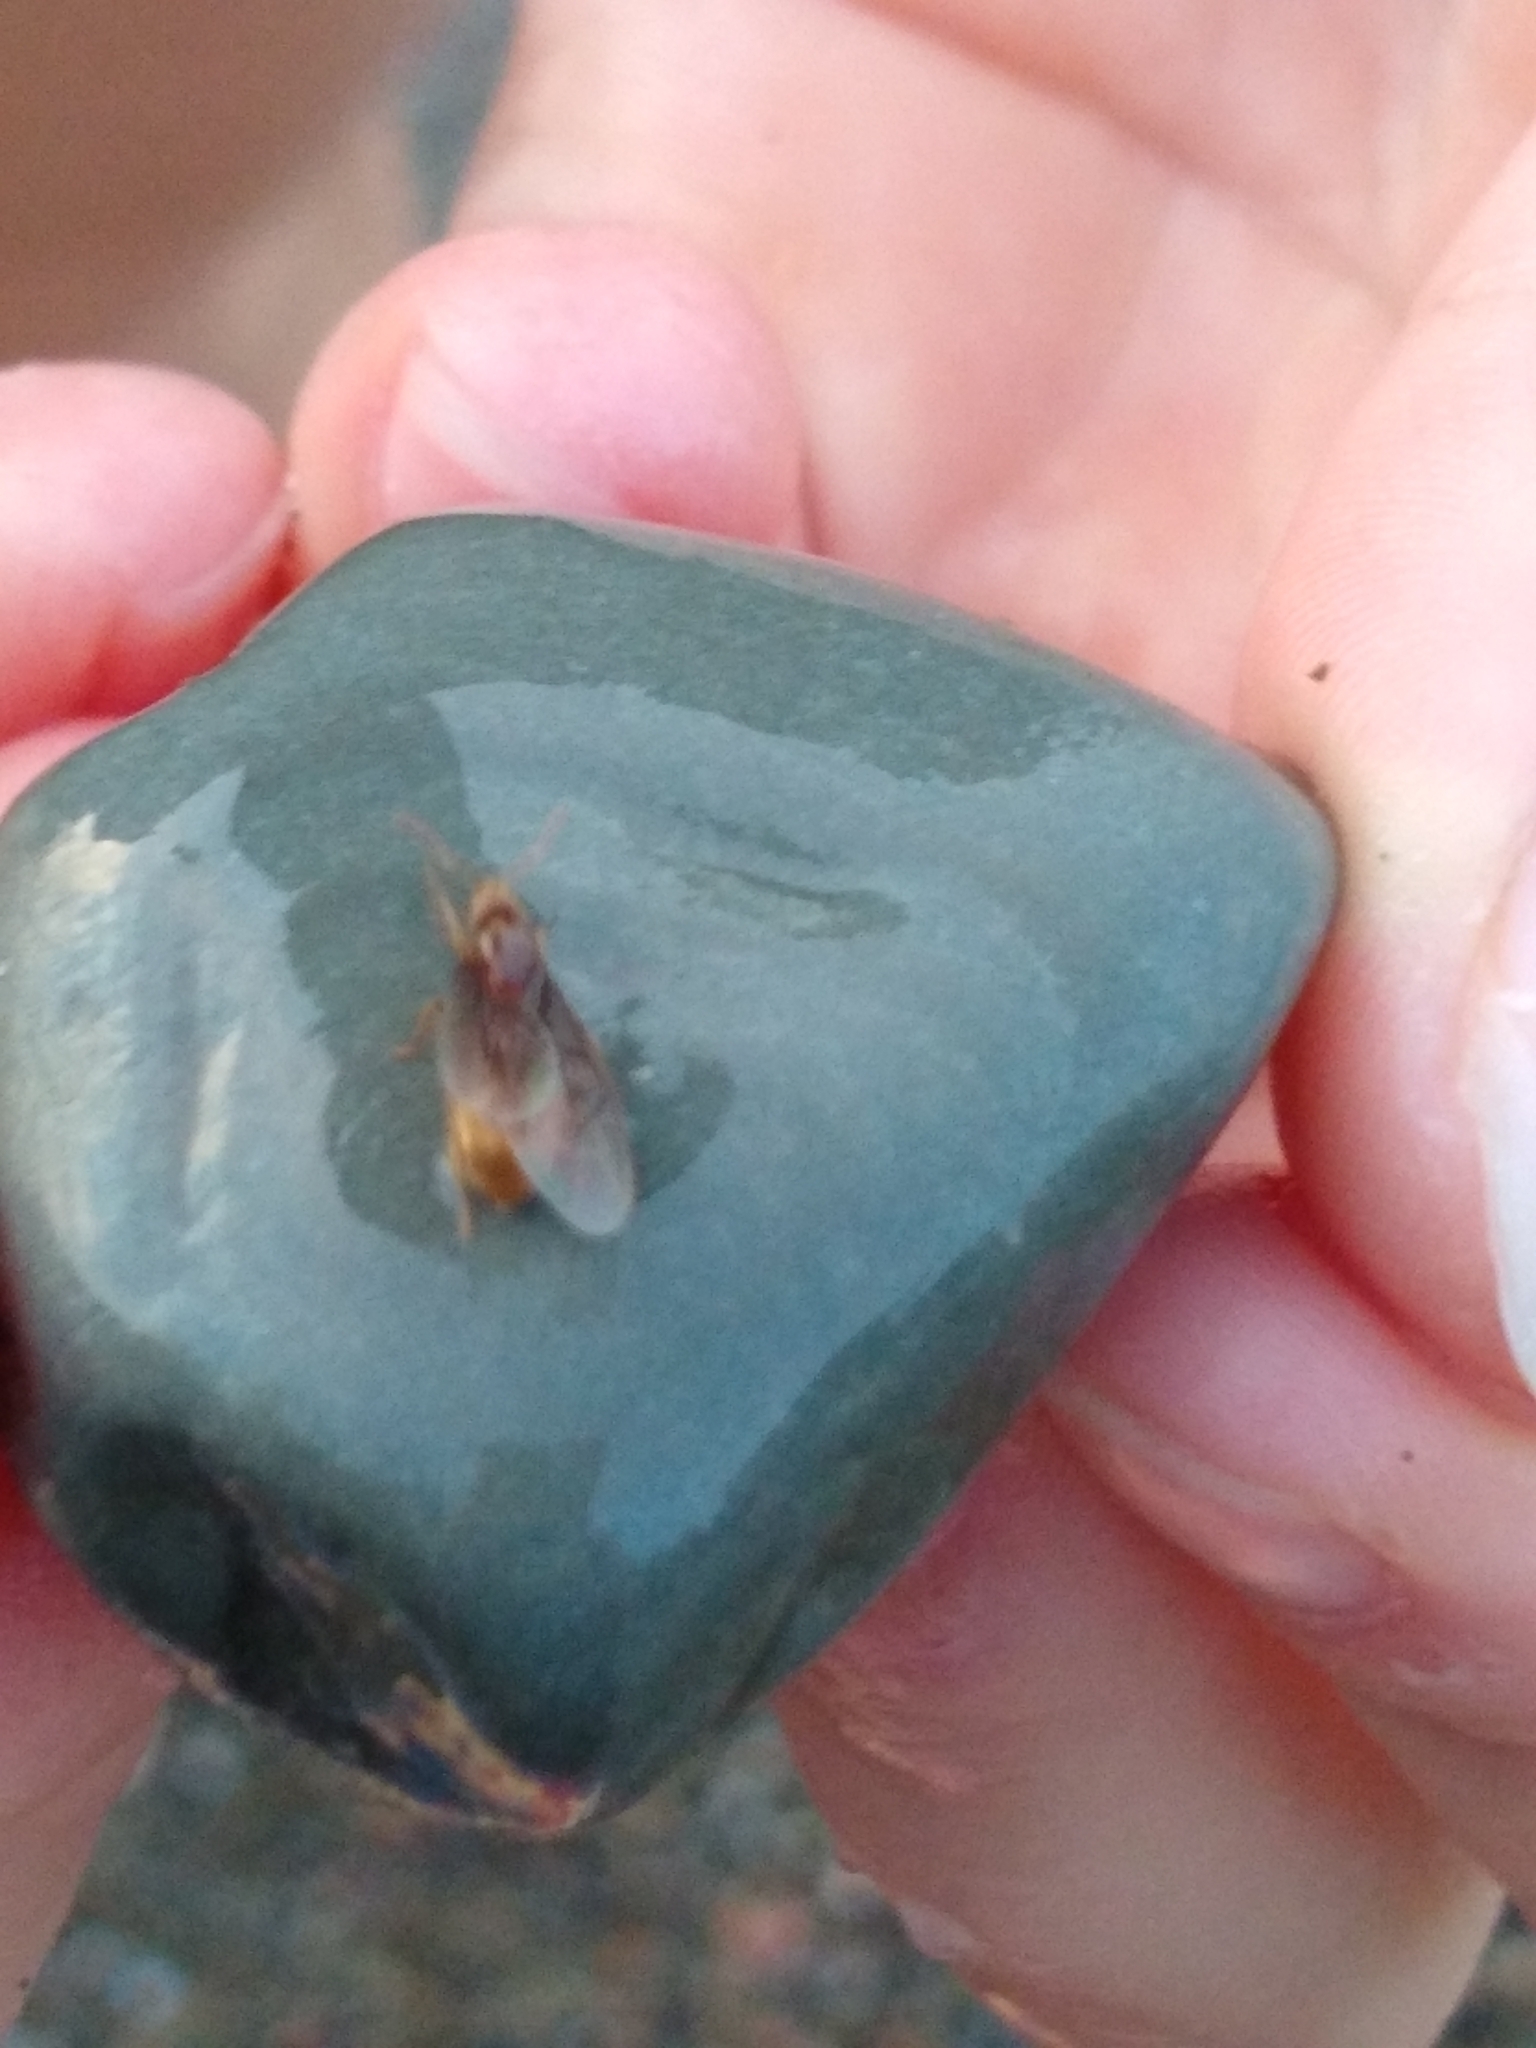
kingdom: Animalia
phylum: Arthropoda
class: Insecta
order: Hymenoptera
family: Formicidae
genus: Lasius
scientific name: Lasius
